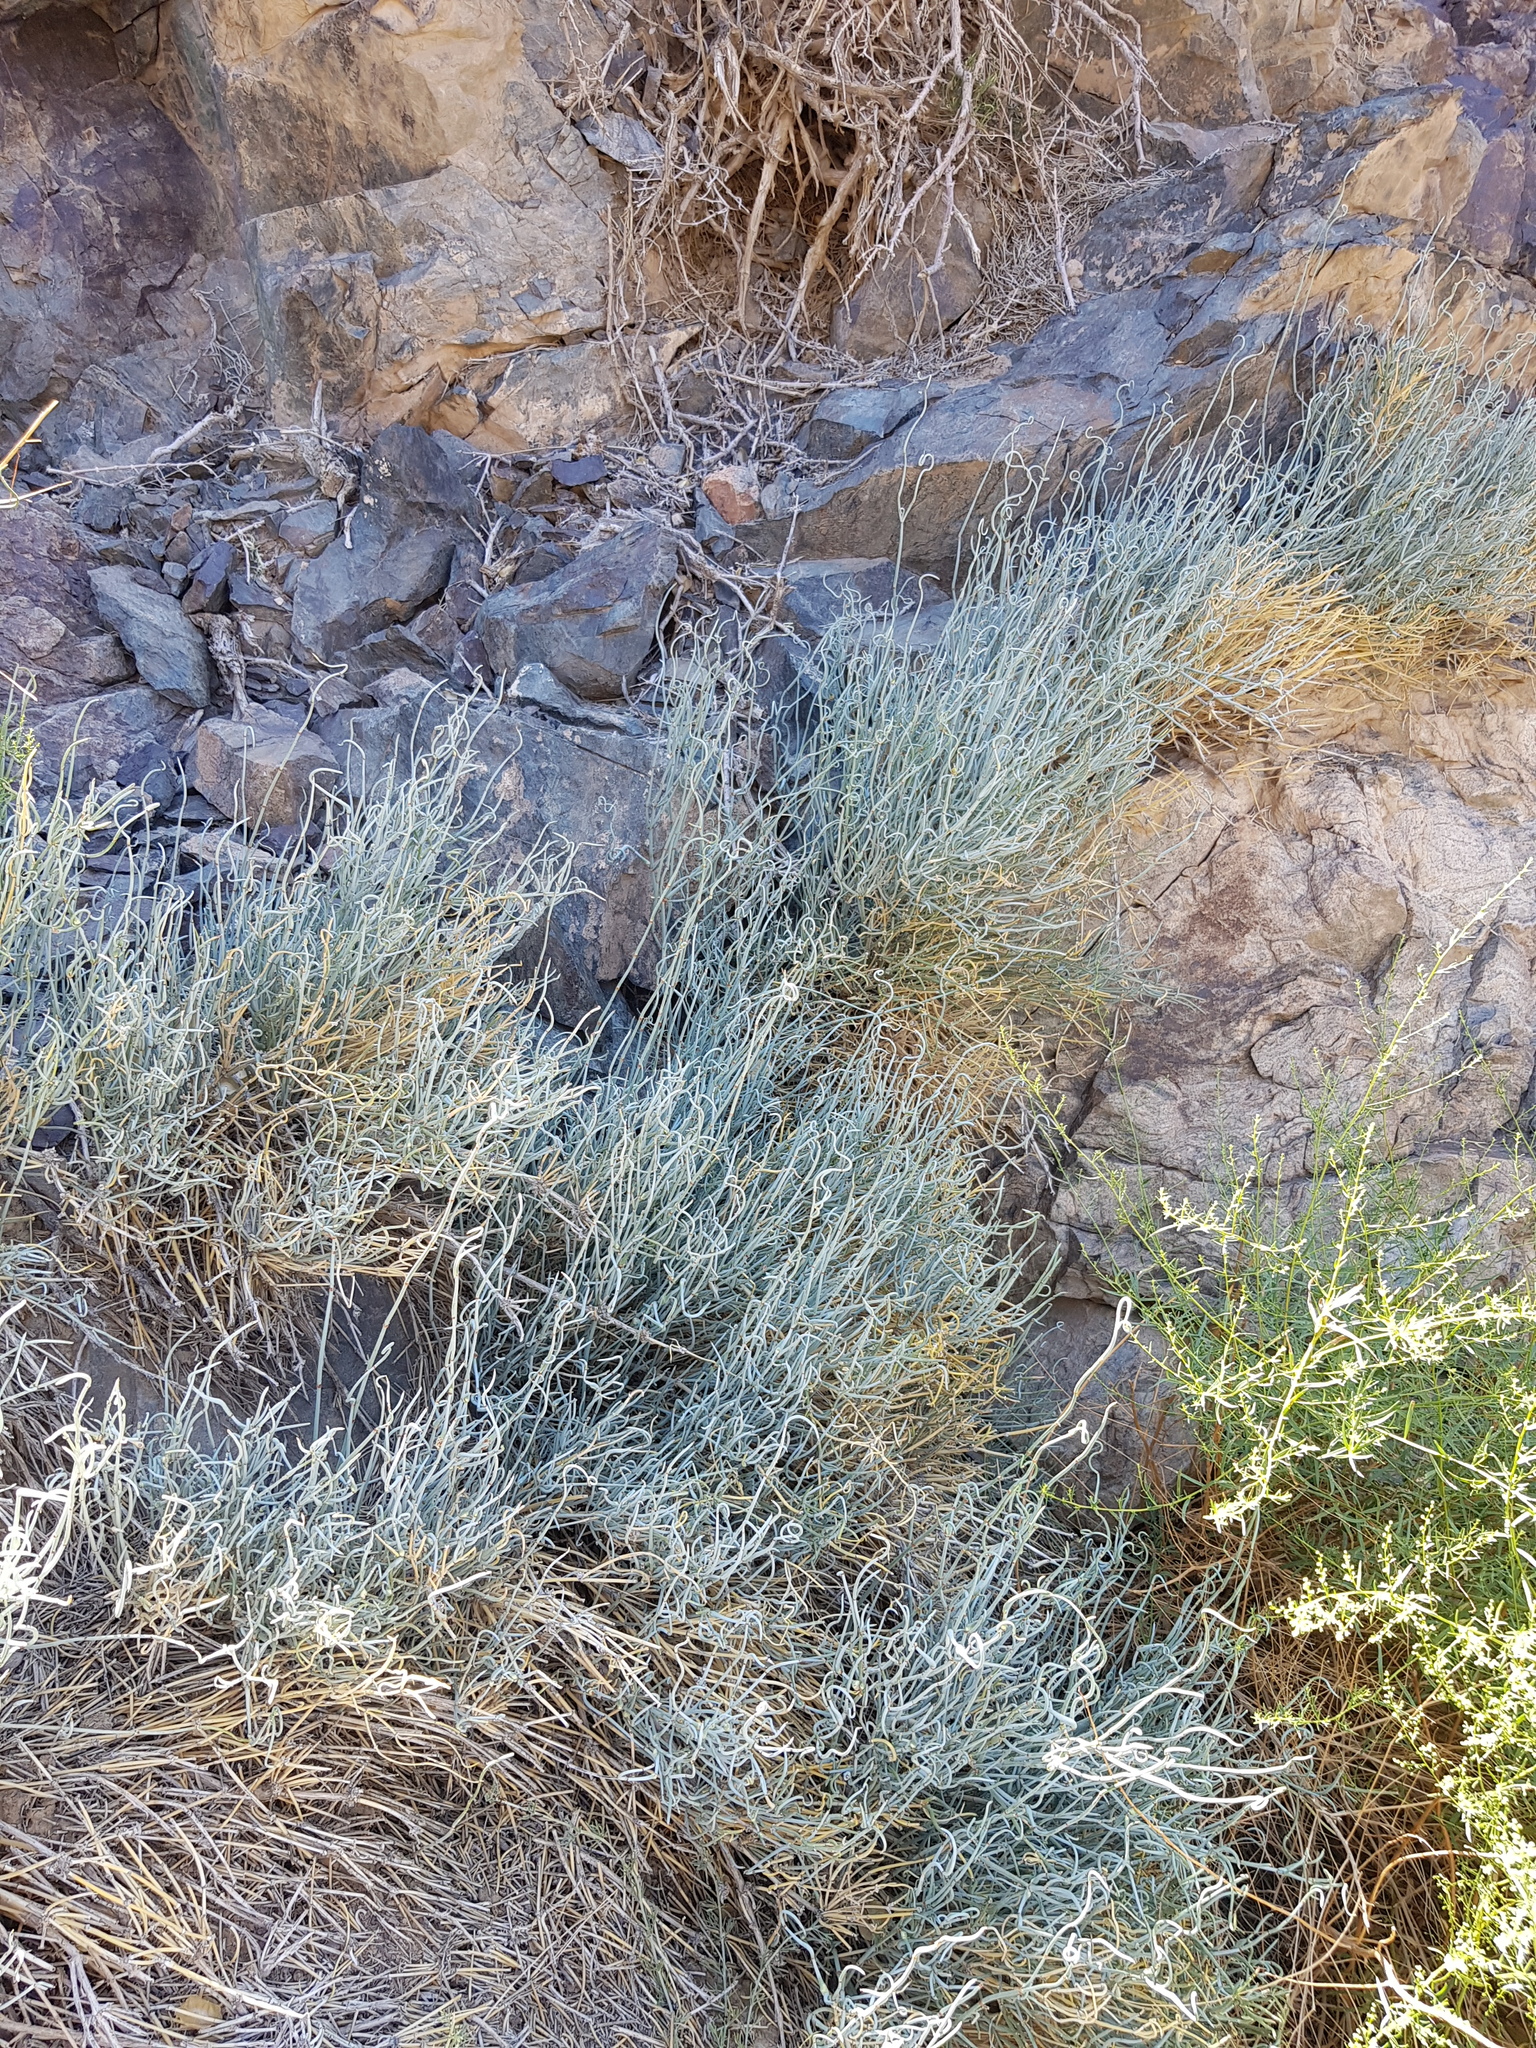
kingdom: Plantae
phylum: Tracheophyta
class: Gnetopsida
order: Ephedrales
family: Ephedraceae
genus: Ephedra
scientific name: Ephedra equisetina
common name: Mongolian ephedra
